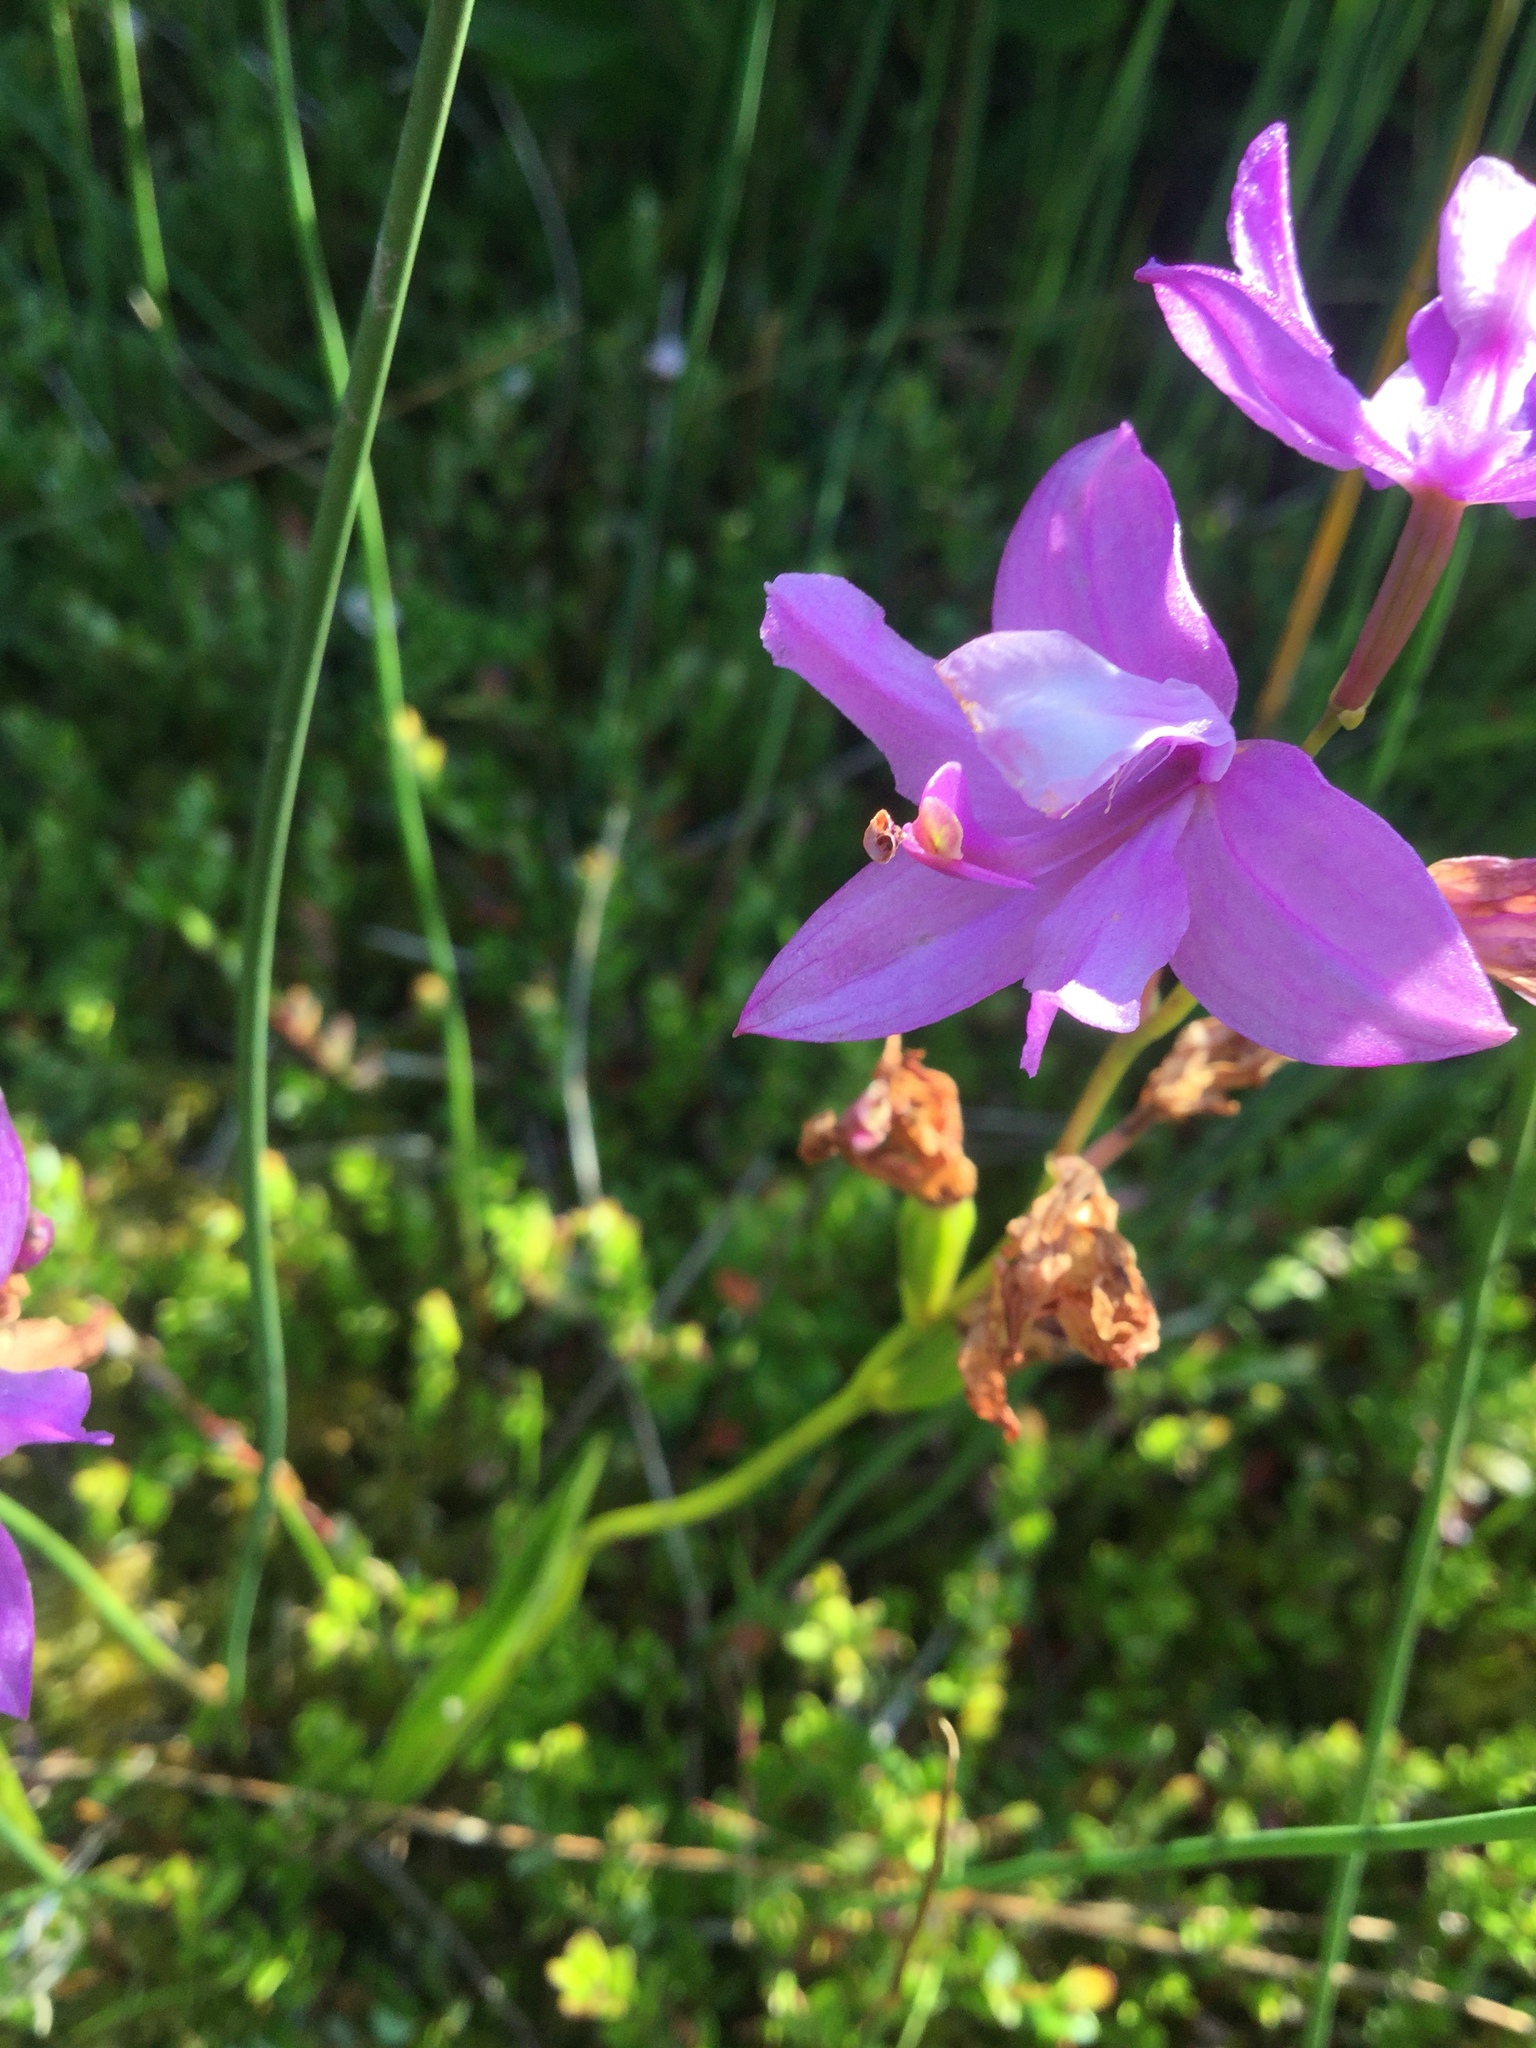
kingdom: Plantae
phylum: Tracheophyta
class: Liliopsida
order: Asparagales
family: Orchidaceae
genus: Calopogon
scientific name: Calopogon tuberosus
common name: Grass-pink
